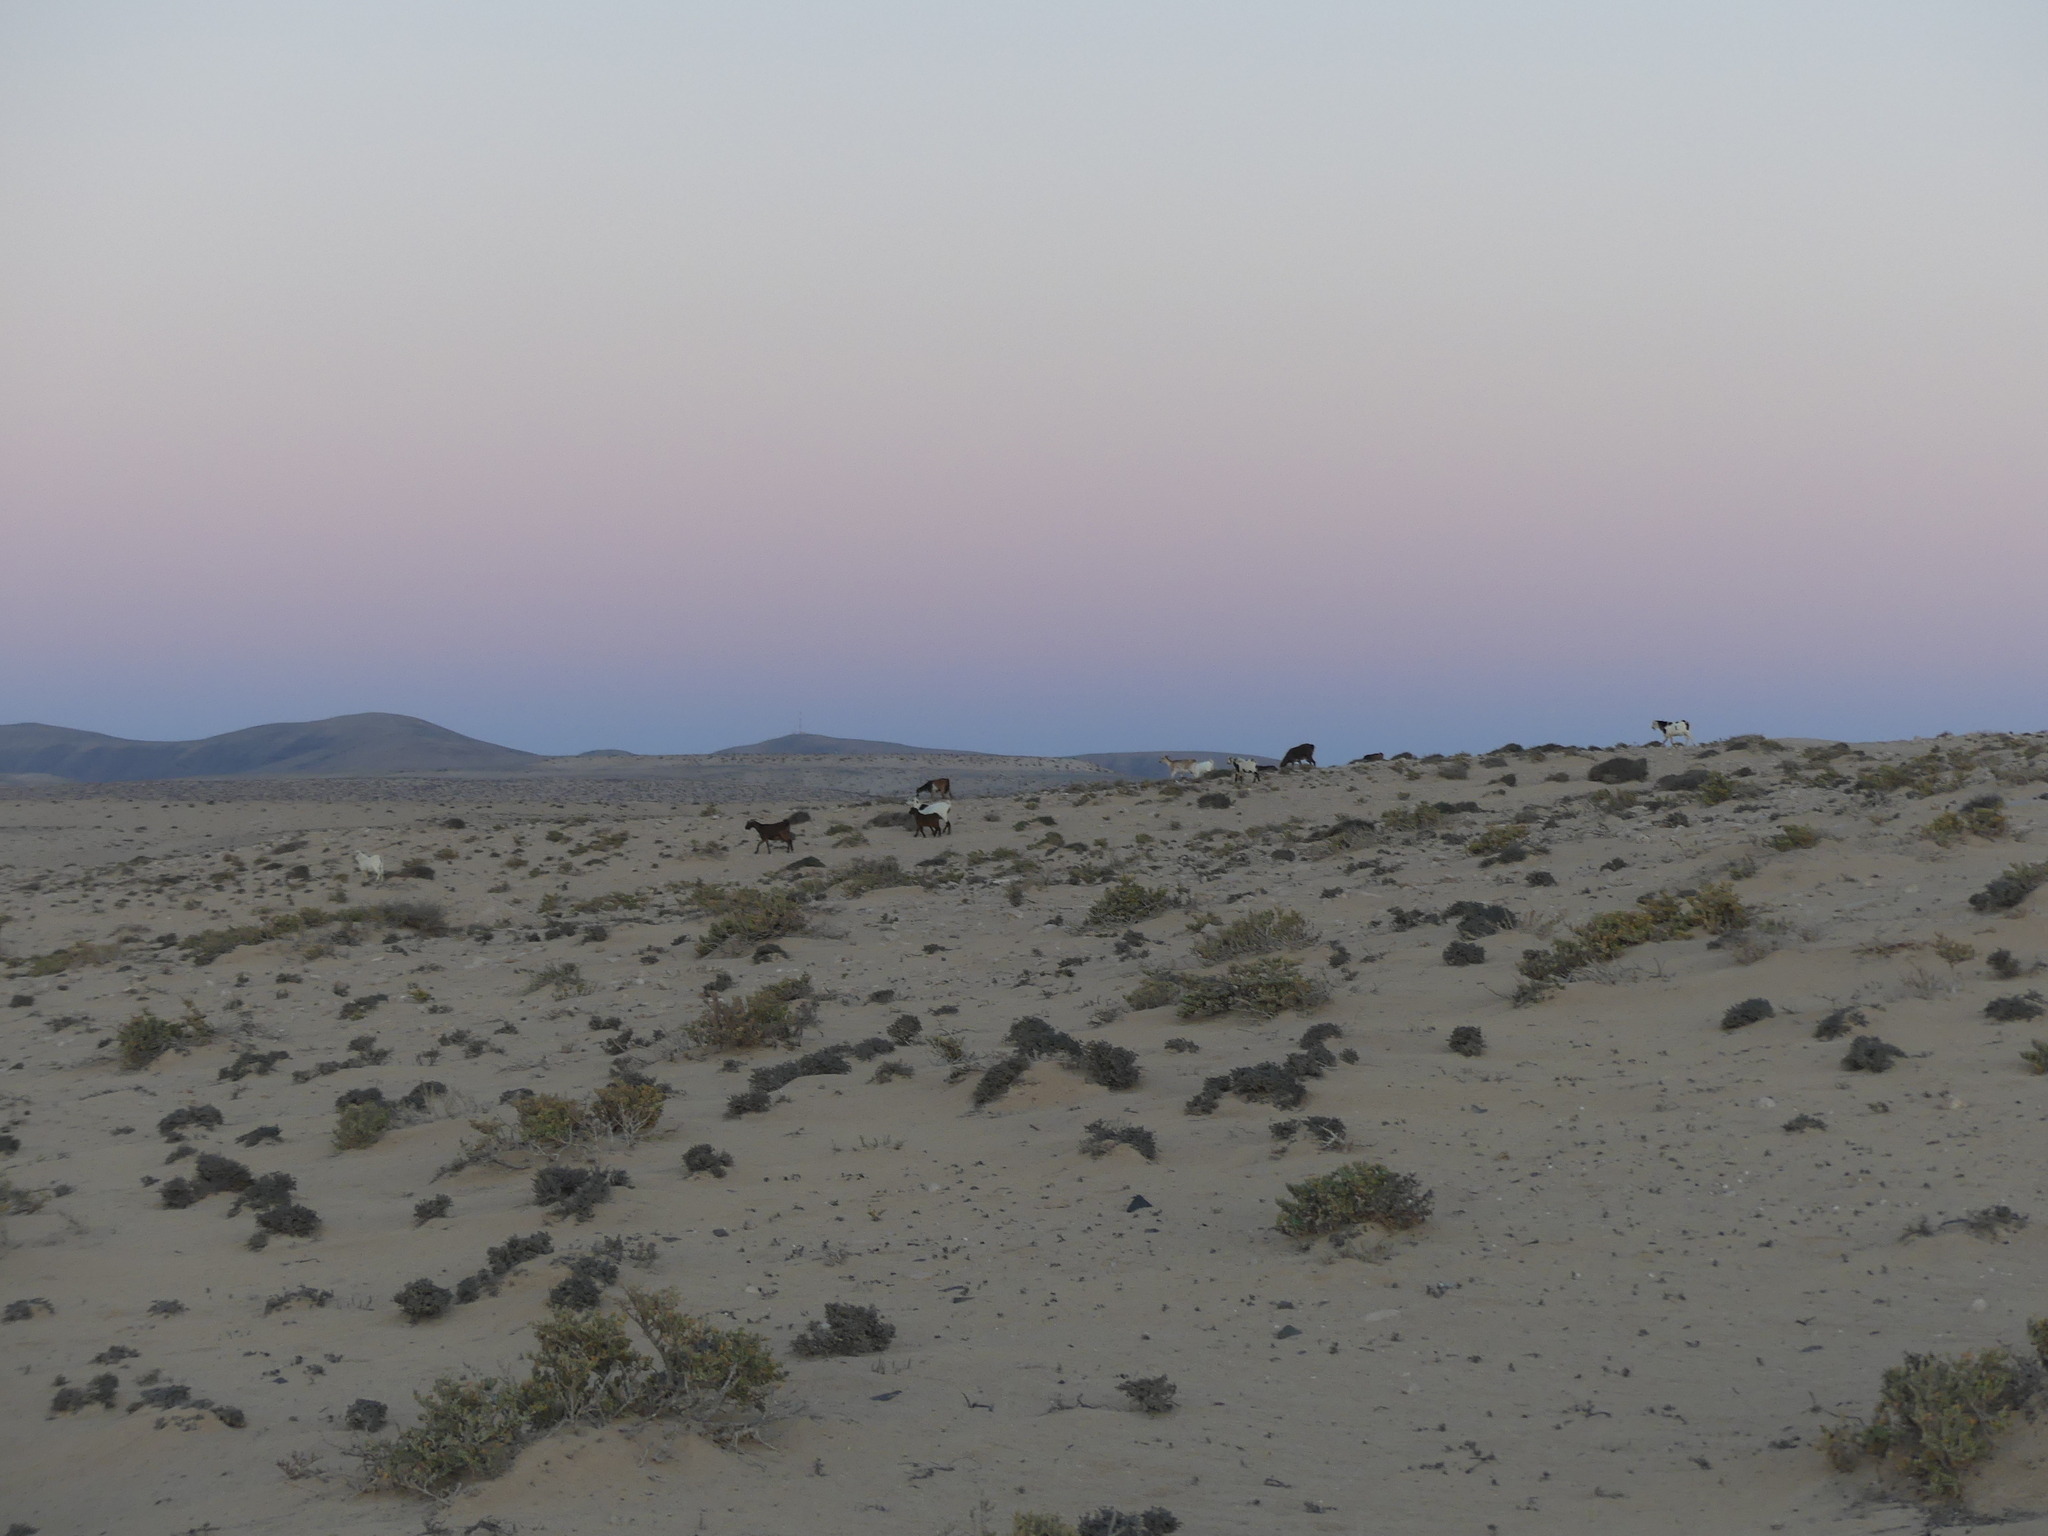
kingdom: Animalia
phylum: Chordata
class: Mammalia
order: Artiodactyla
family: Bovidae
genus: Capra
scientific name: Capra hircus
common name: Domestic goat
